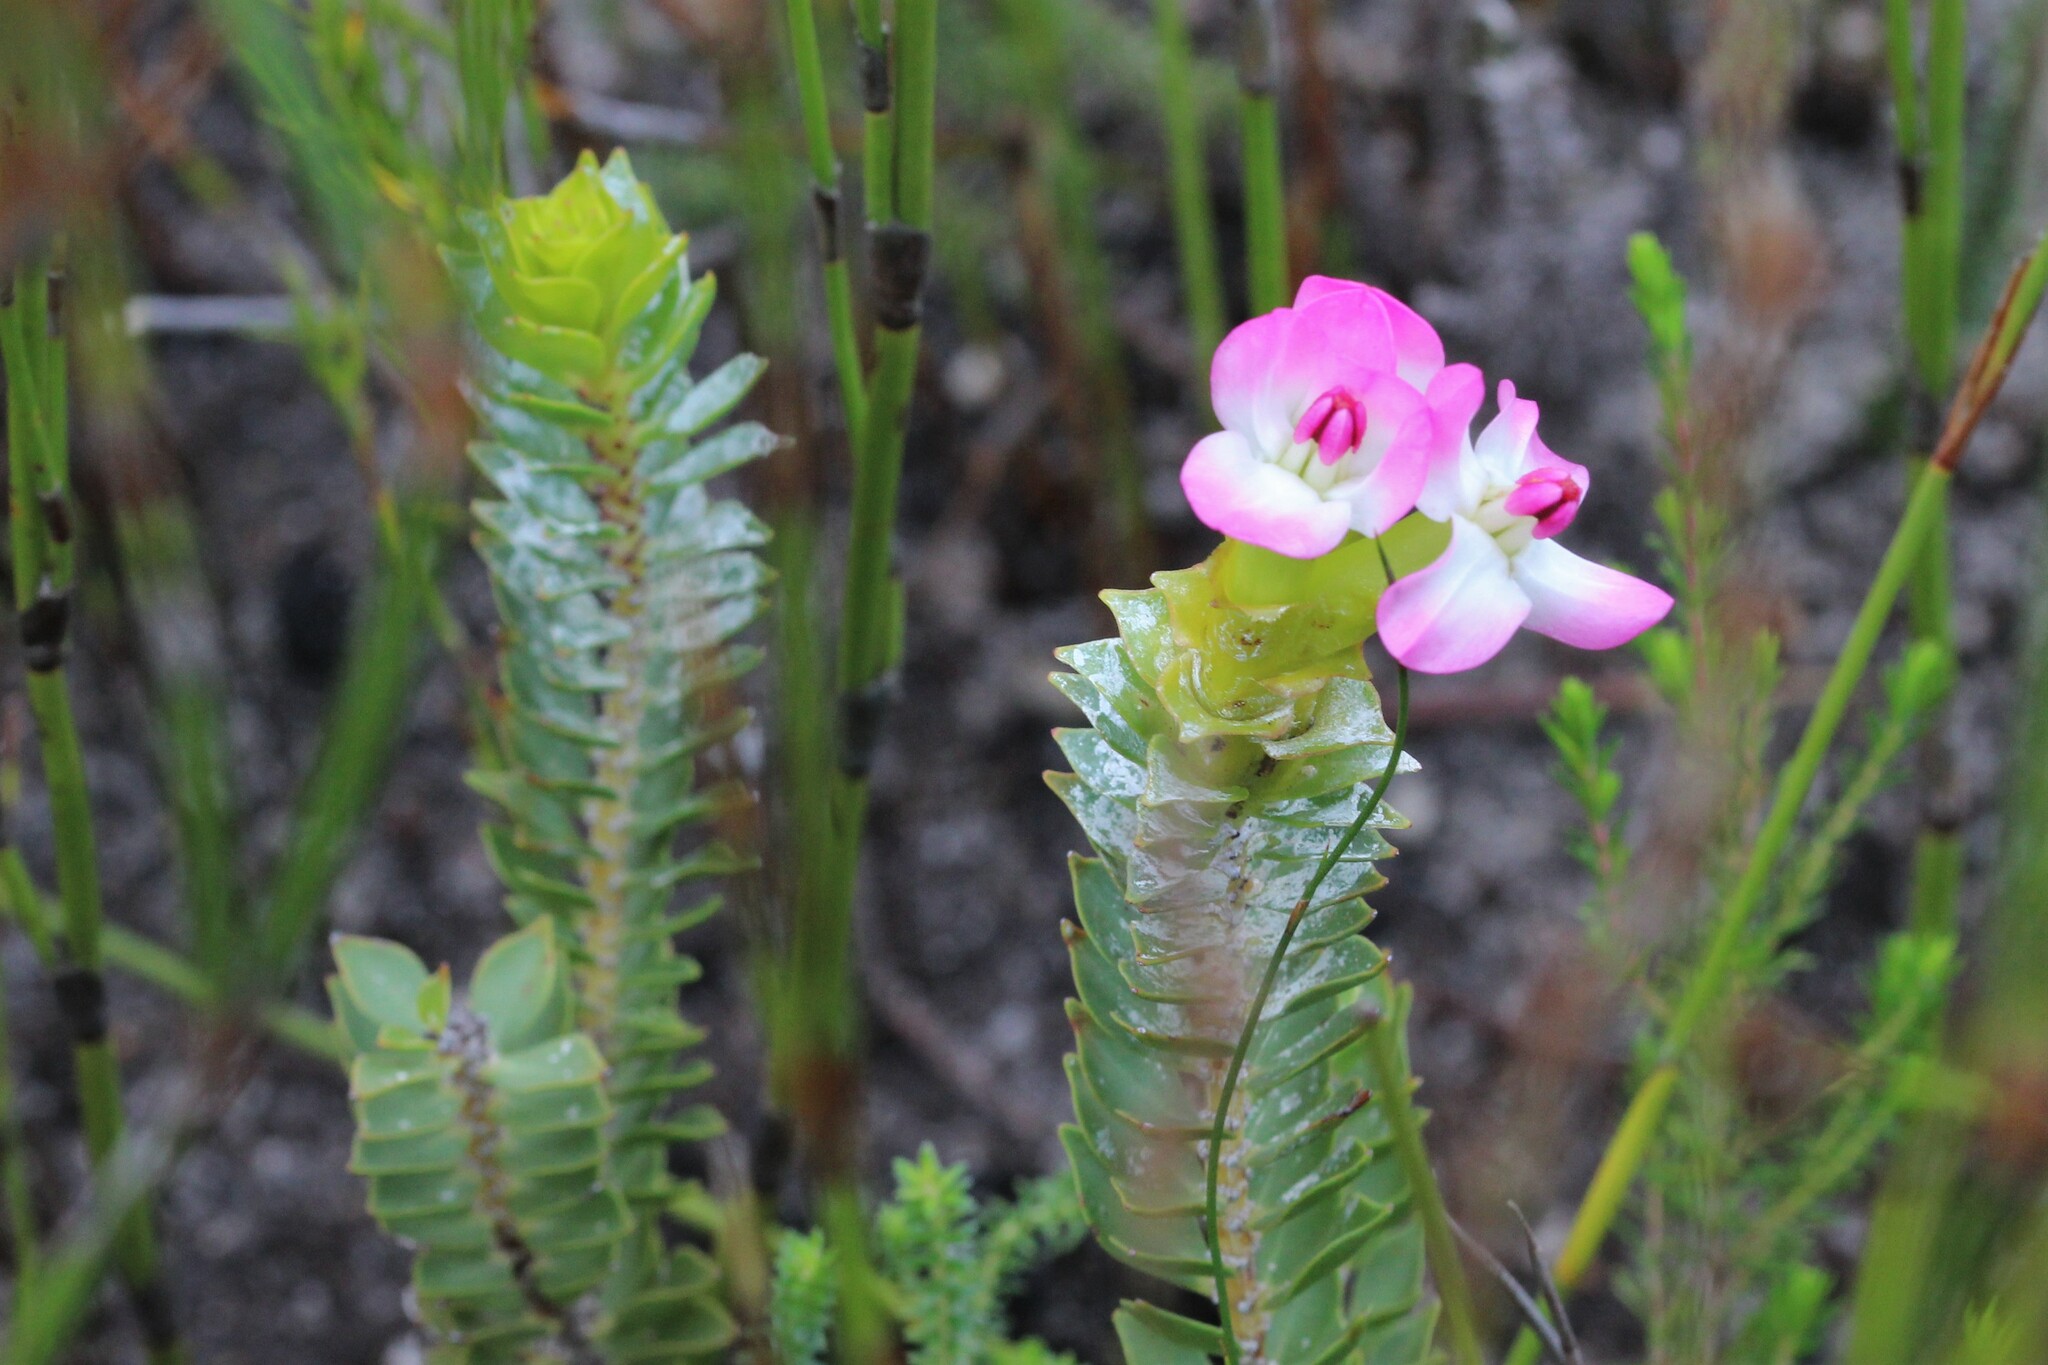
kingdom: Plantae
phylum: Tracheophyta
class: Magnoliopsida
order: Myrtales
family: Penaeaceae
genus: Saltera
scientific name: Saltera sarcocolla
